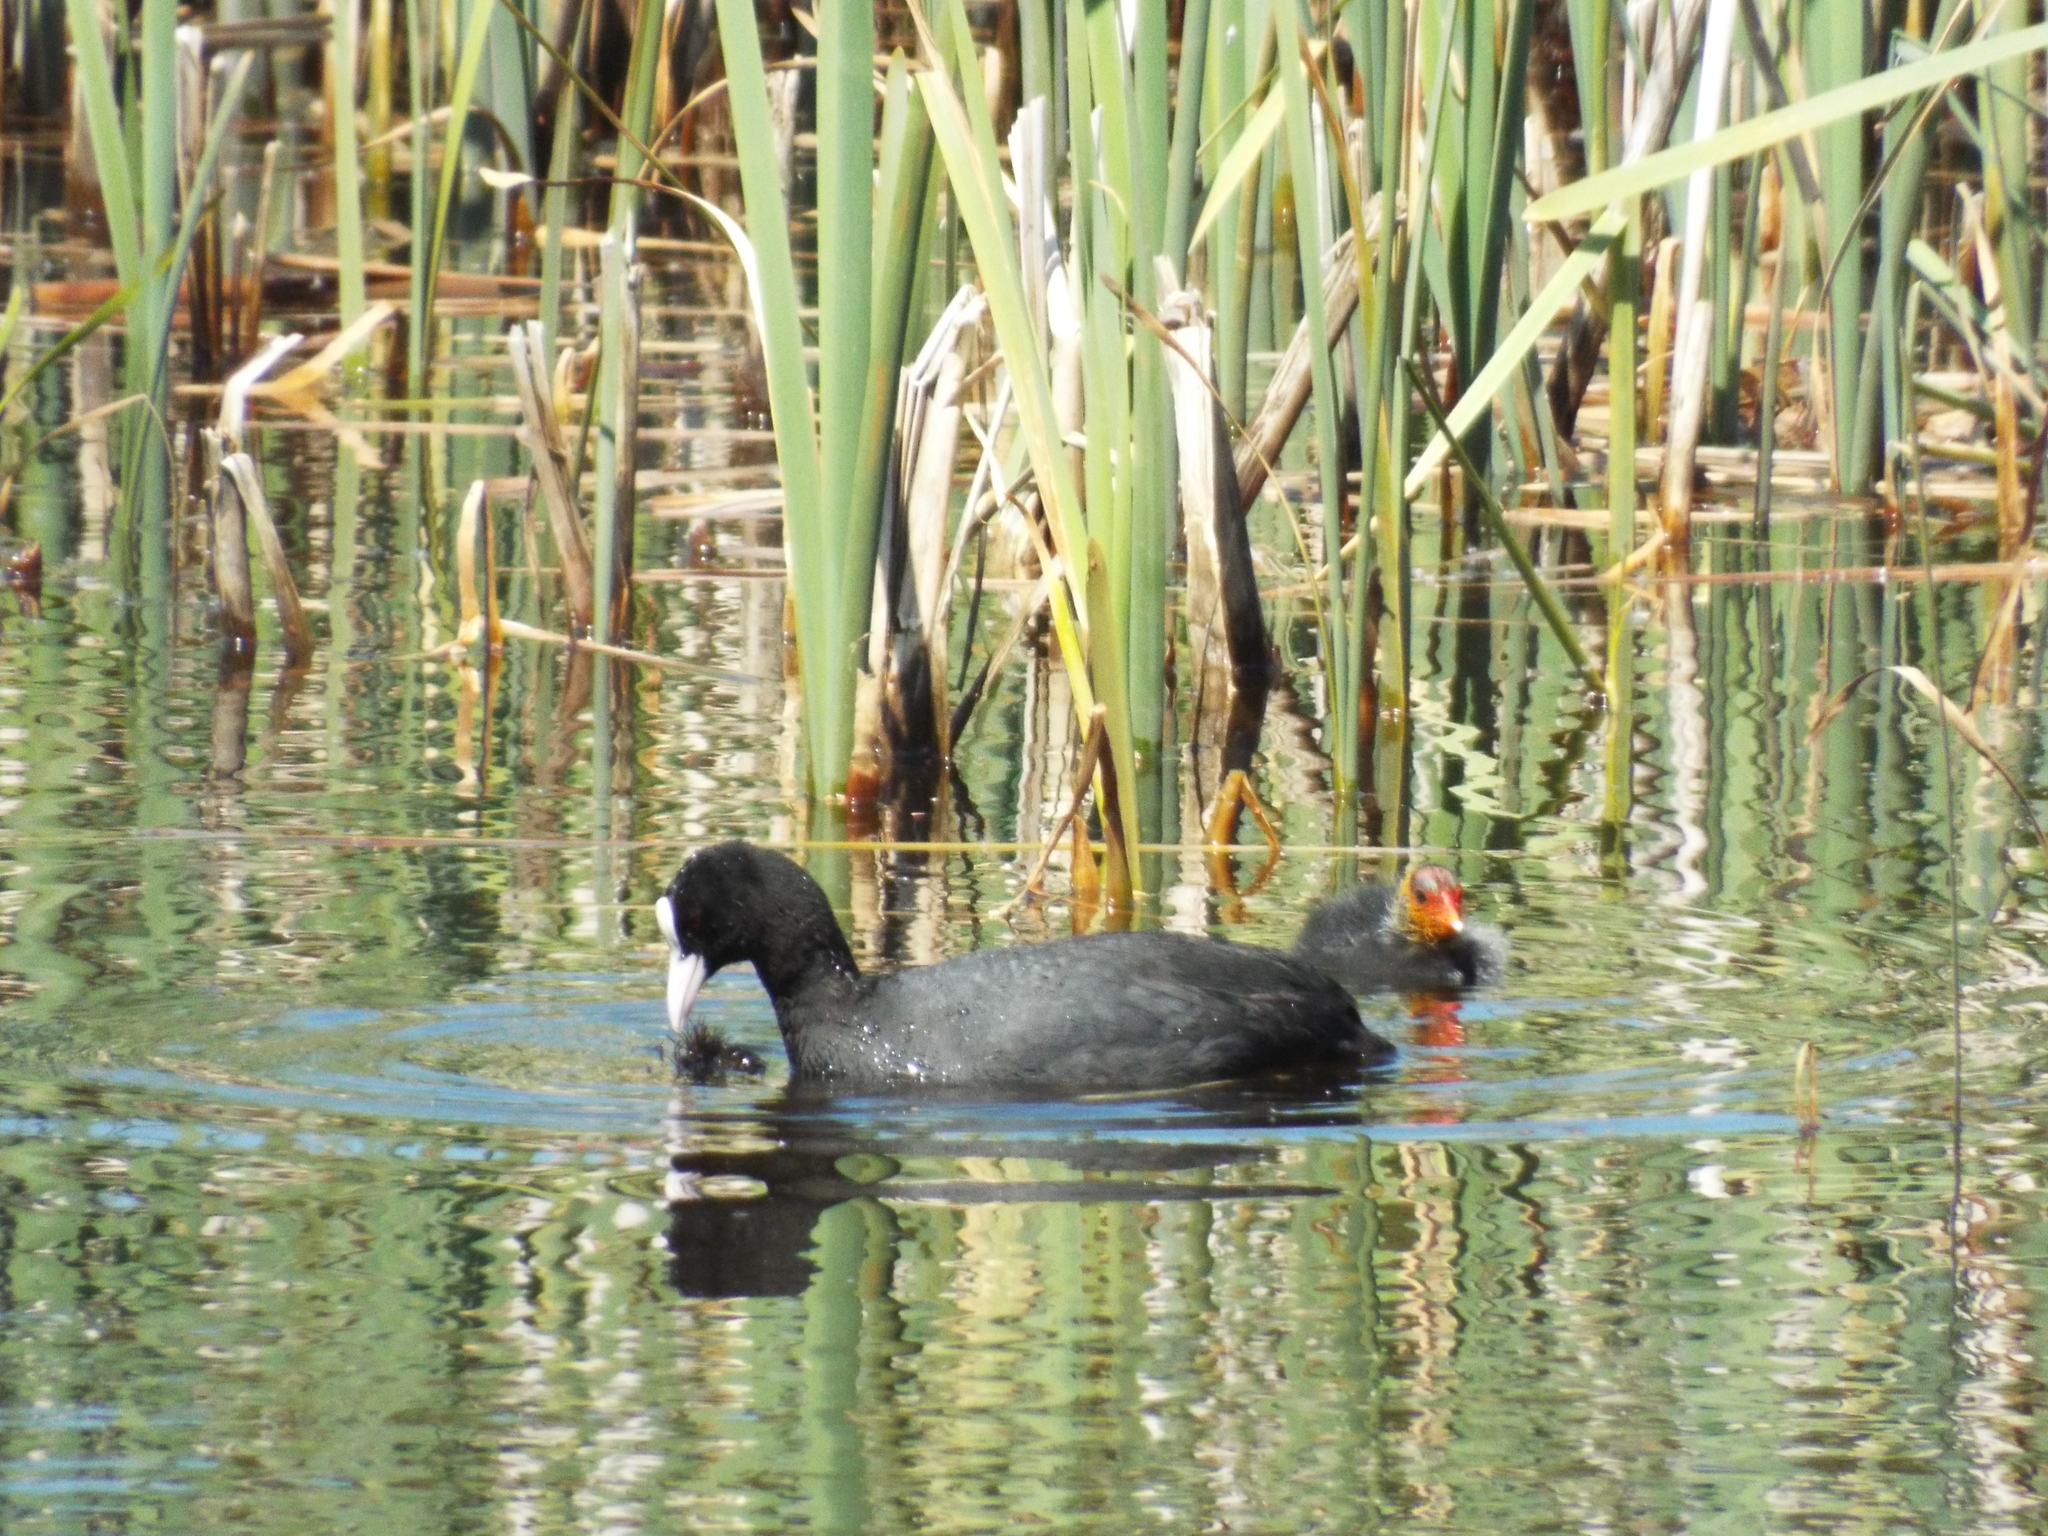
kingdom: Animalia
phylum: Chordata
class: Aves
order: Gruiformes
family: Rallidae
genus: Fulica
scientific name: Fulica atra
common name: Eurasian coot
